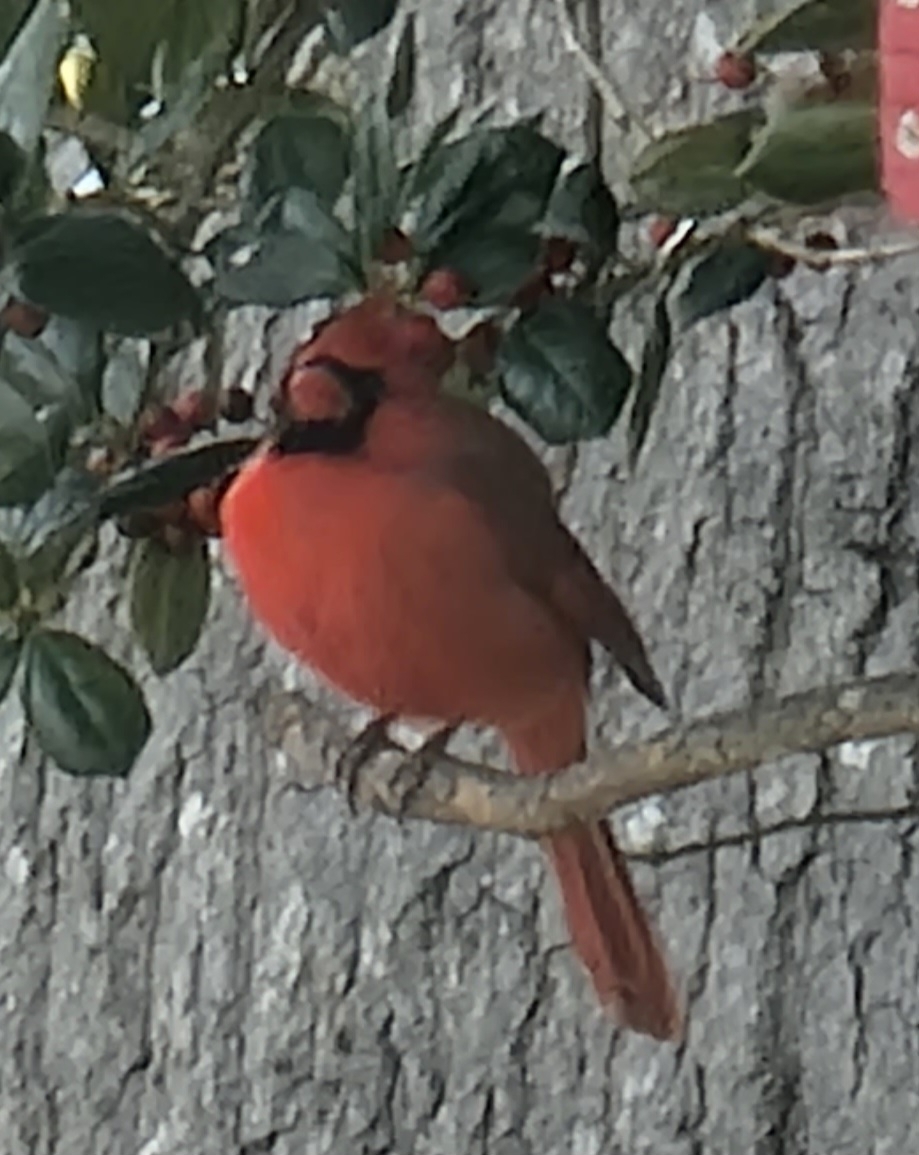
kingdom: Animalia
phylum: Chordata
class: Aves
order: Passeriformes
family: Cardinalidae
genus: Cardinalis
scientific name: Cardinalis cardinalis
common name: Northern cardinal
